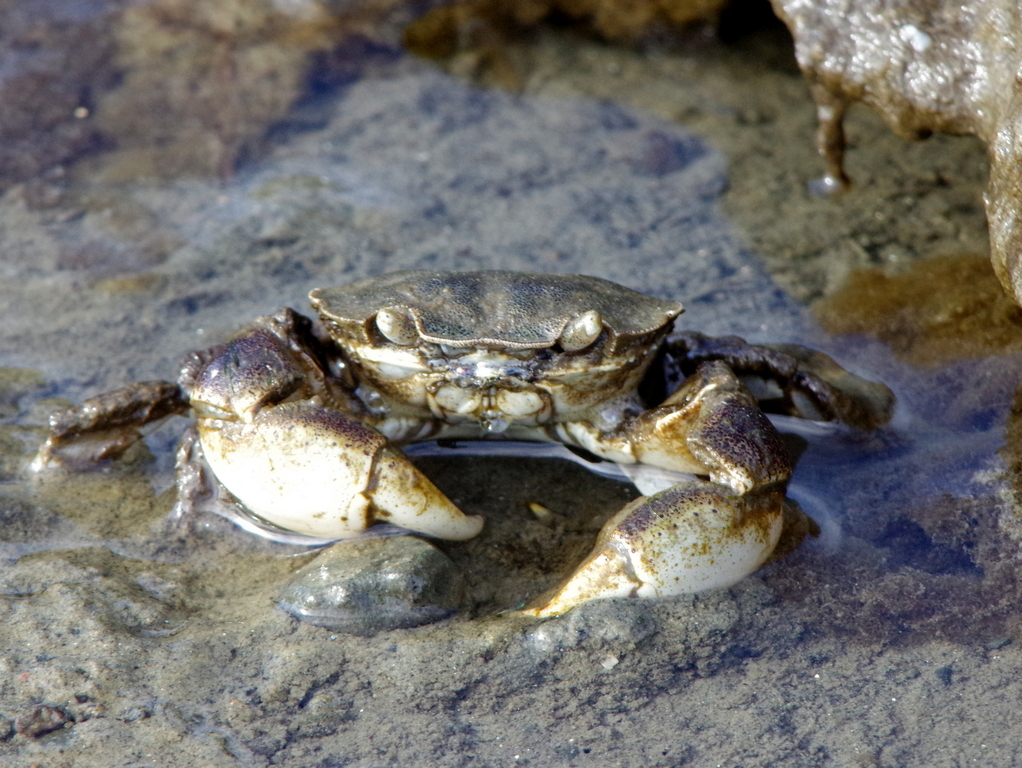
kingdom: Animalia
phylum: Arthropoda
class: Malacostraca
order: Decapoda
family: Varunidae
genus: Hemigrapsus
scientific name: Hemigrapsus crenulatus
